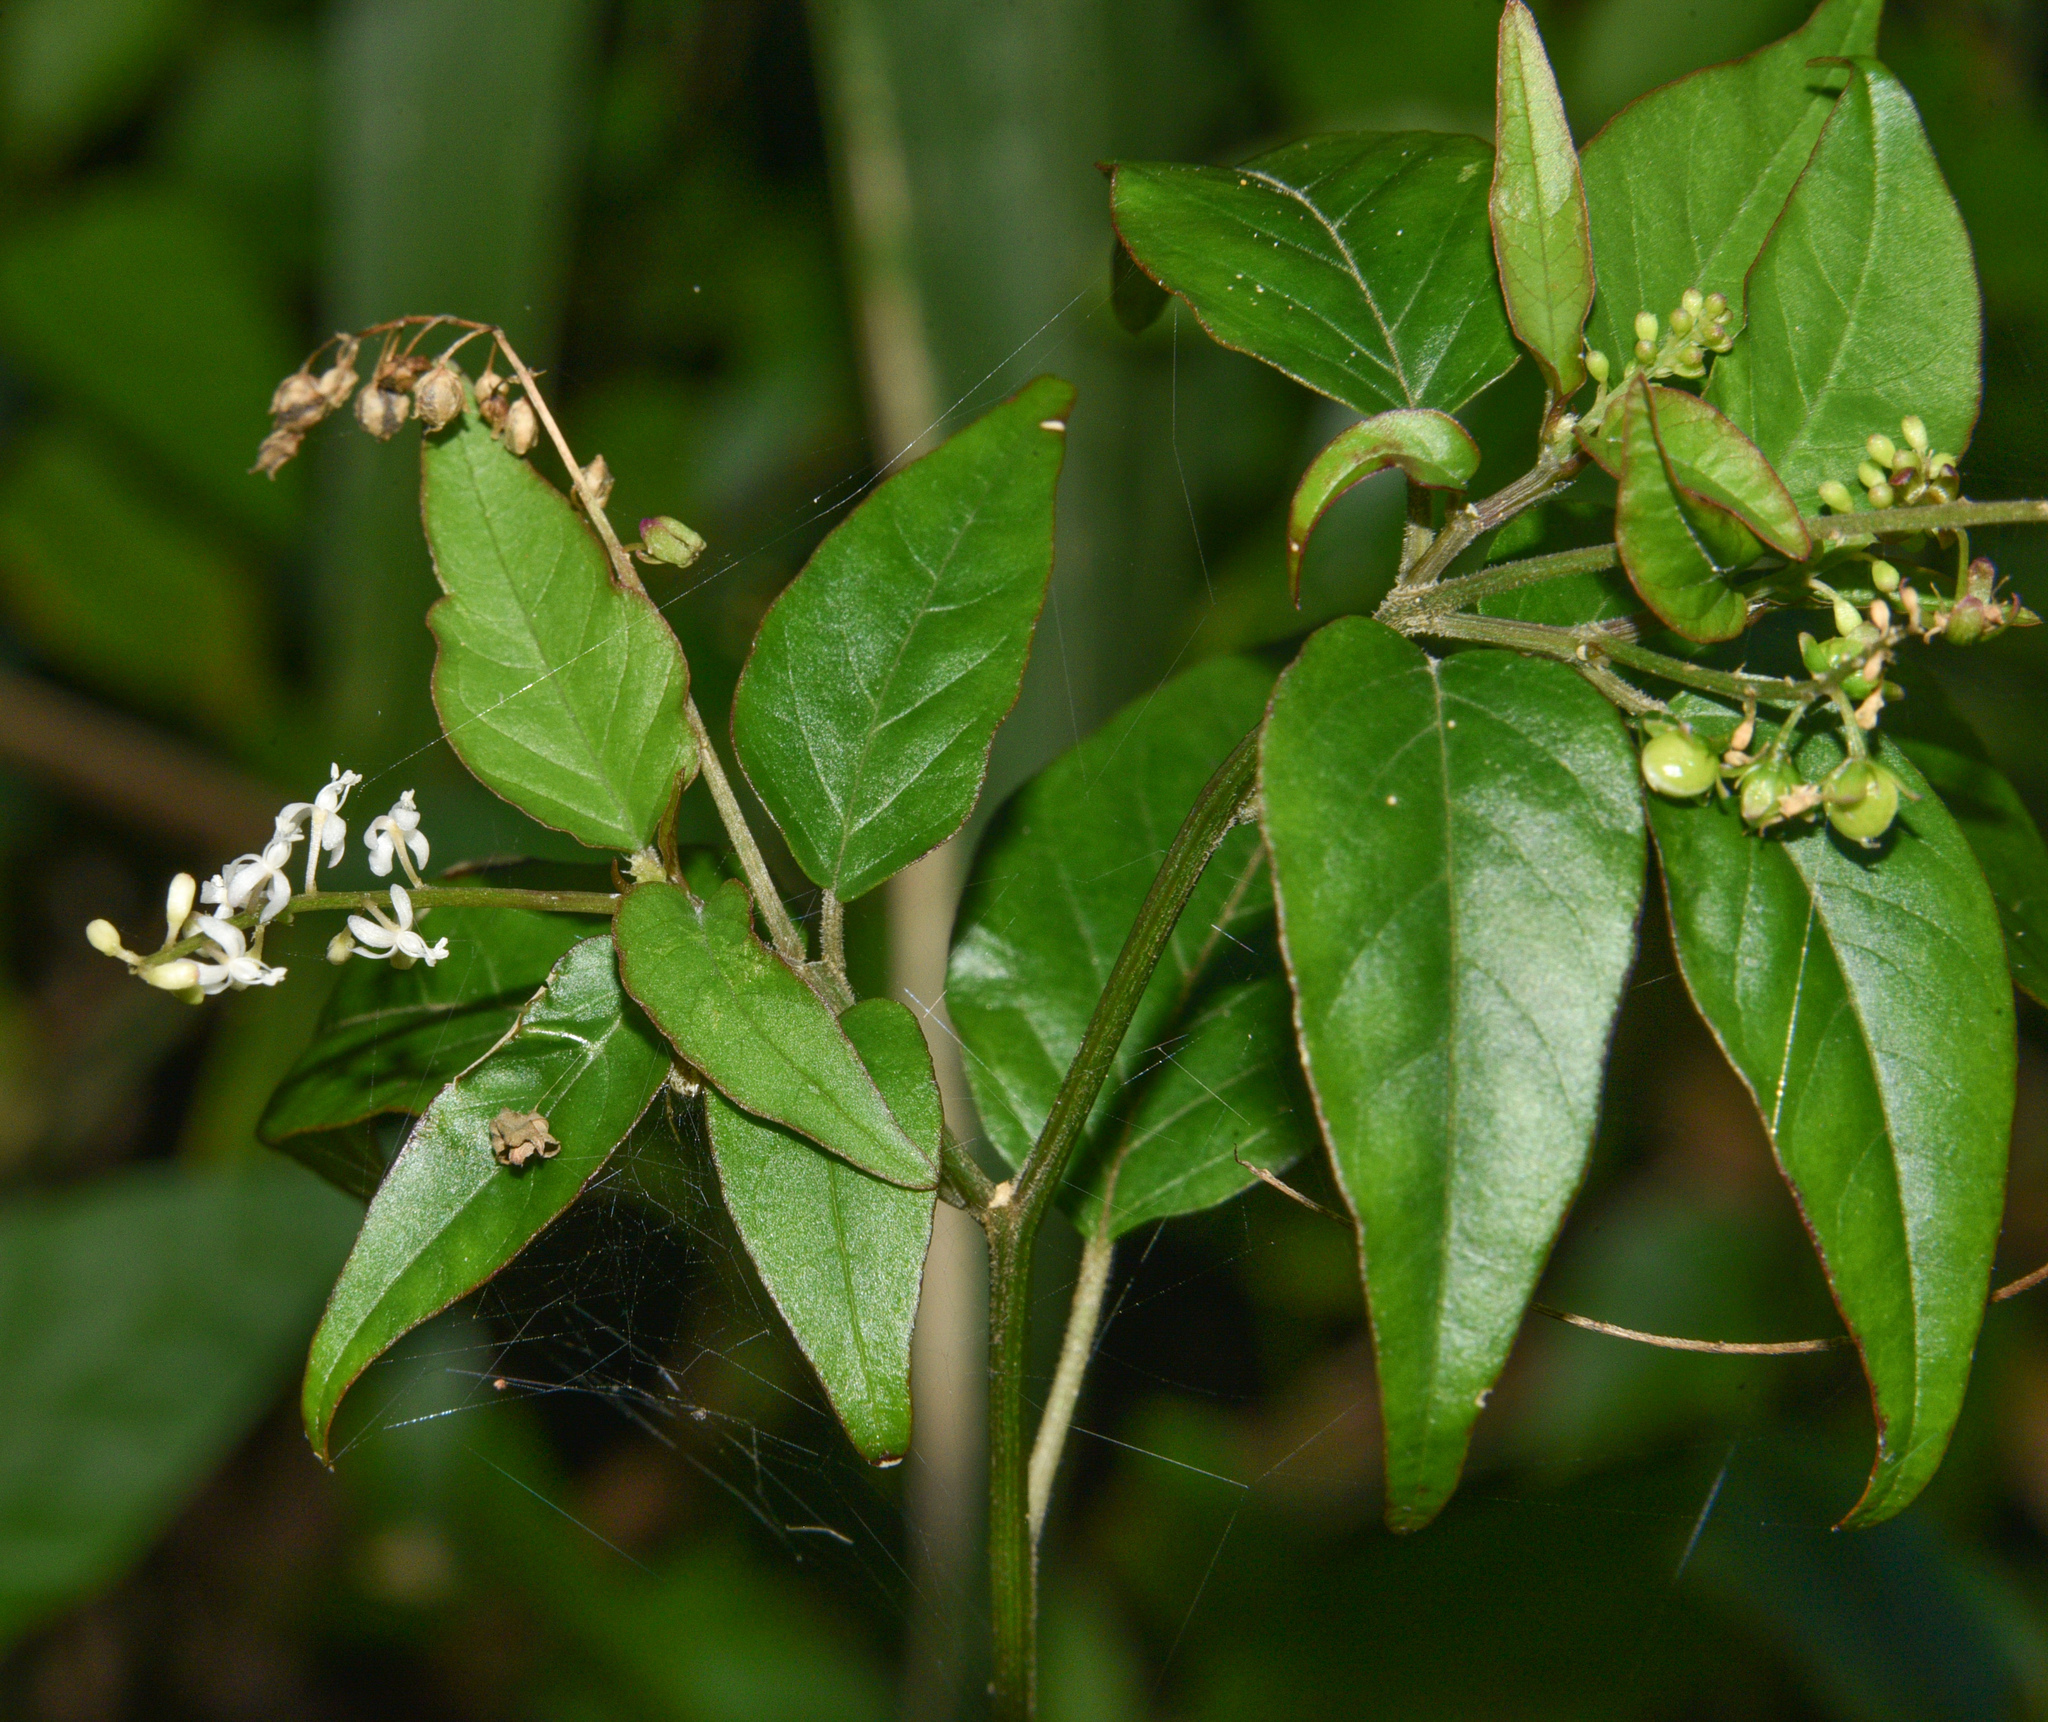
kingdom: Plantae
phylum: Tracheophyta
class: Magnoliopsida
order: Caryophyllales
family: Phytolaccaceae
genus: Rivina
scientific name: Rivina humilis
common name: Rougeplant
